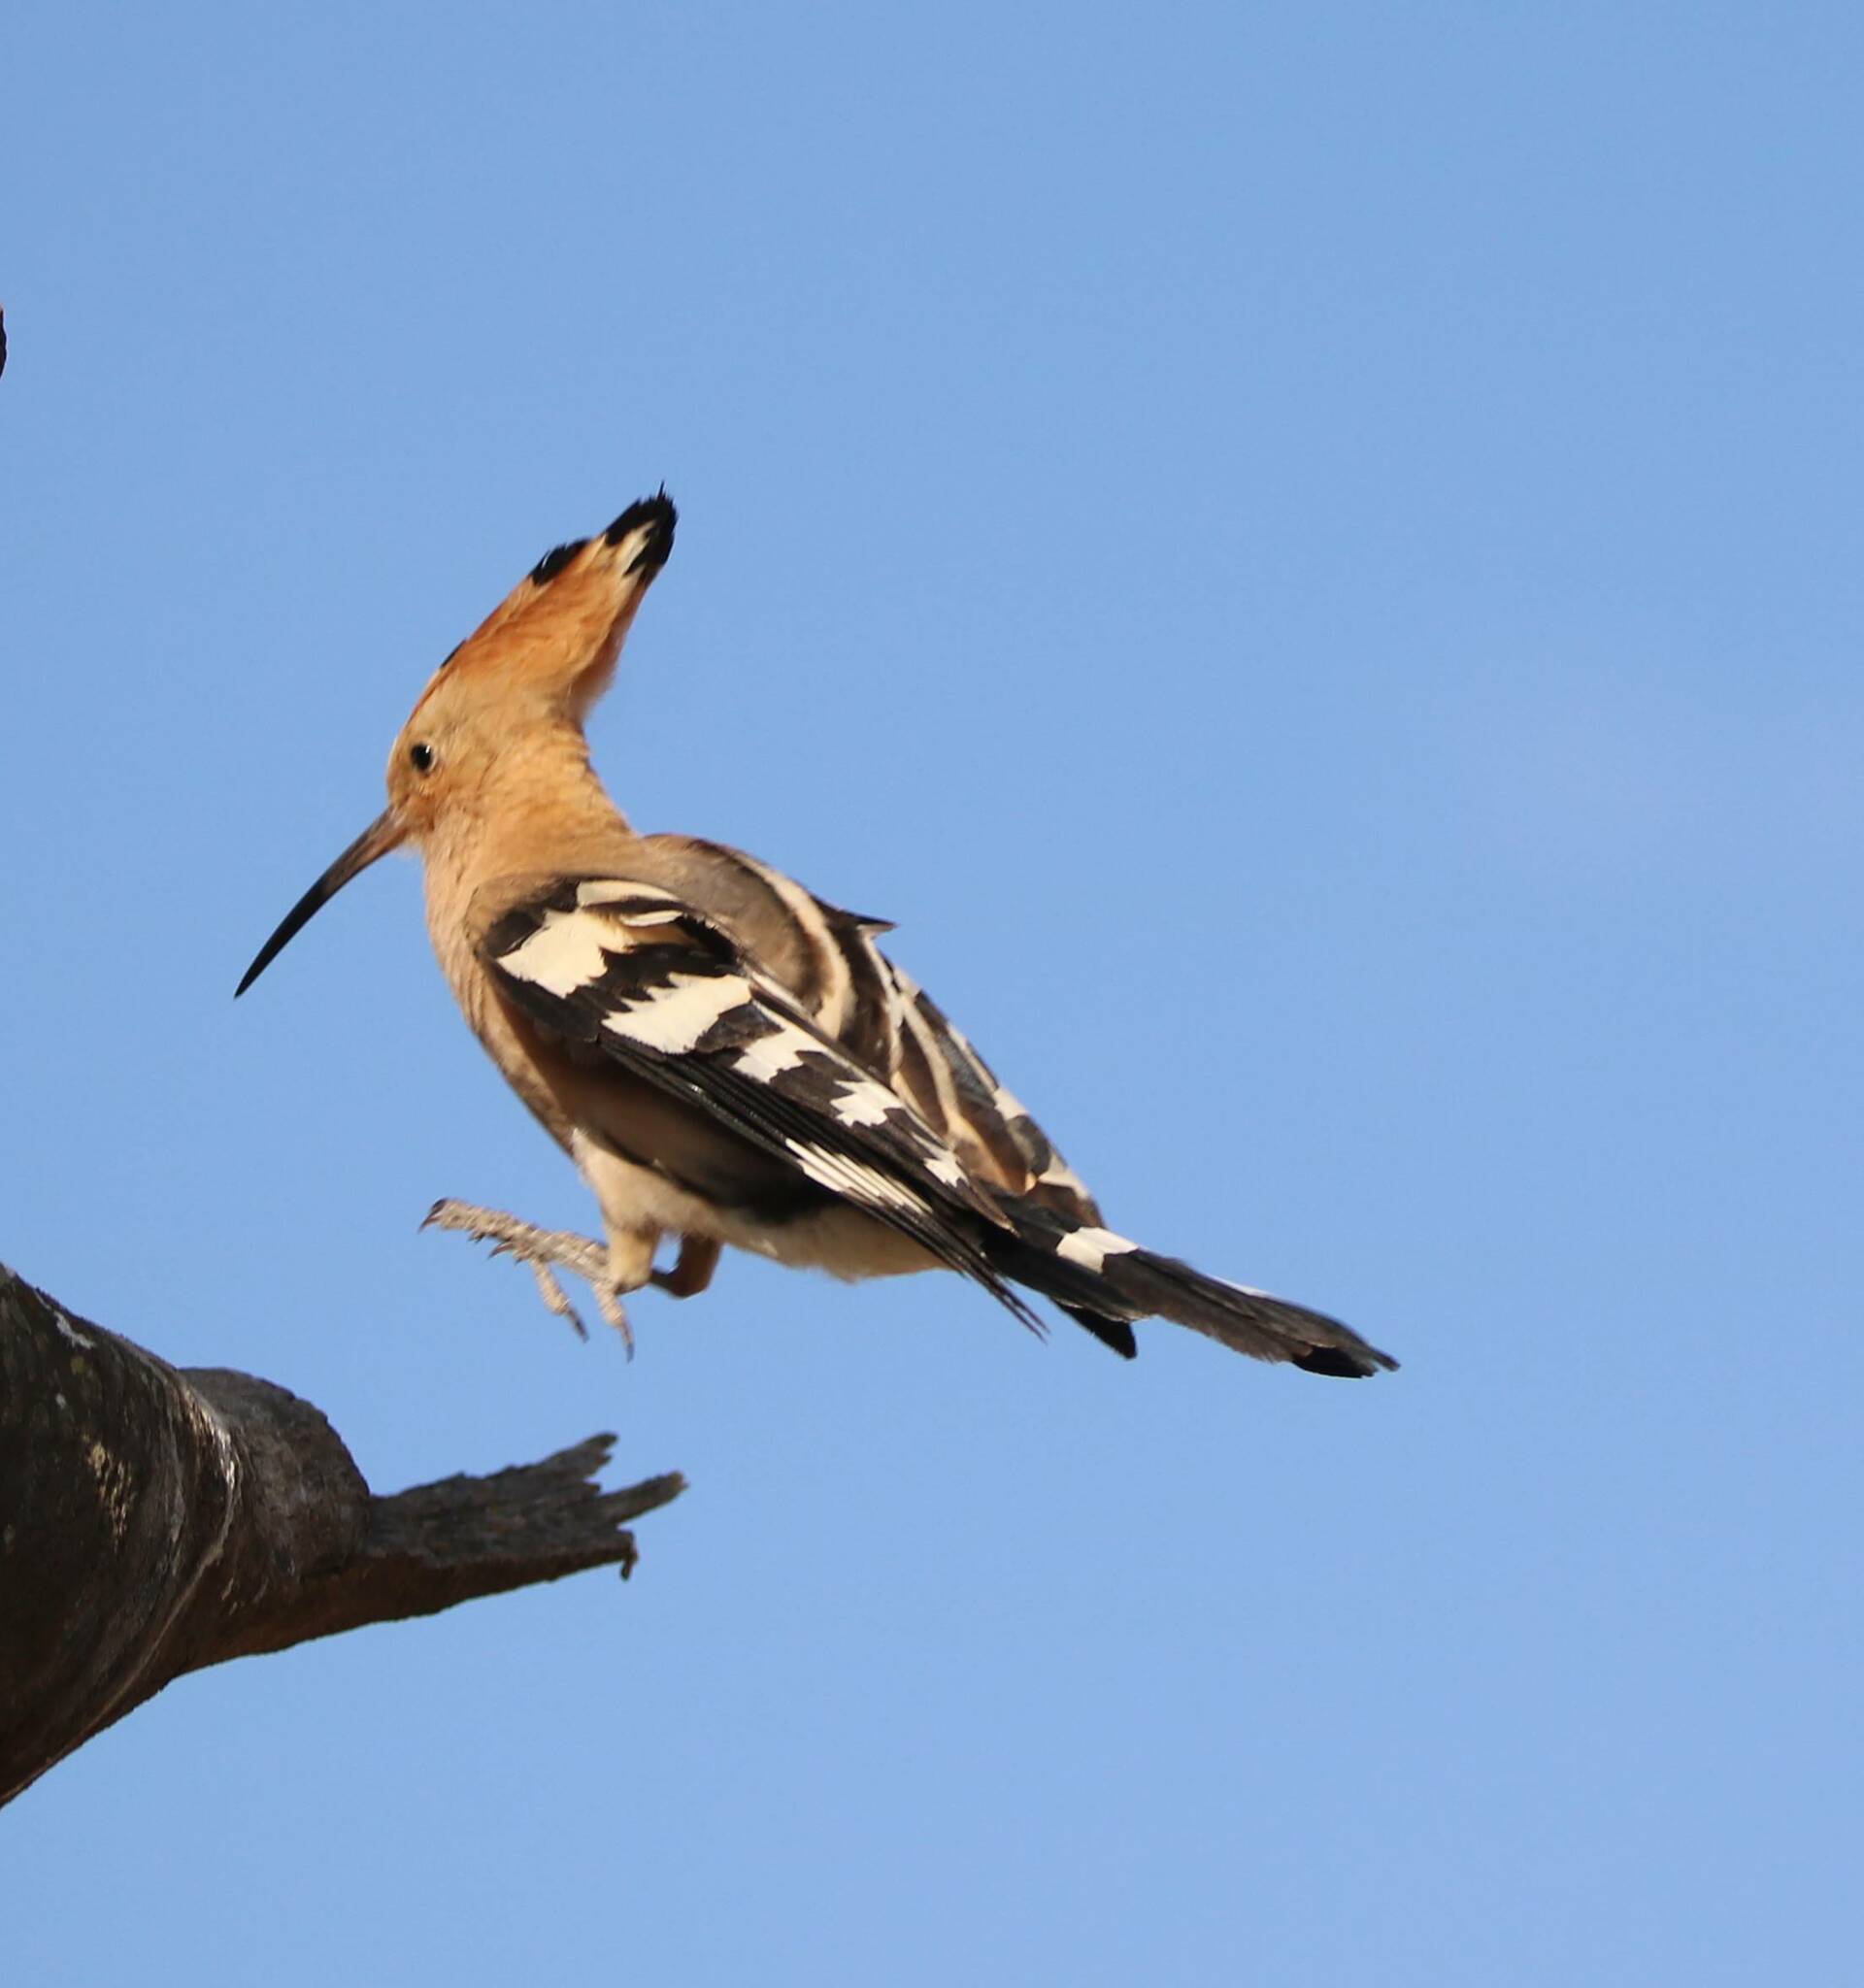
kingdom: Animalia
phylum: Chordata
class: Aves
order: Bucerotiformes
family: Upupidae
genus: Upupa
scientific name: Upupa epops
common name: Eurasian hoopoe
